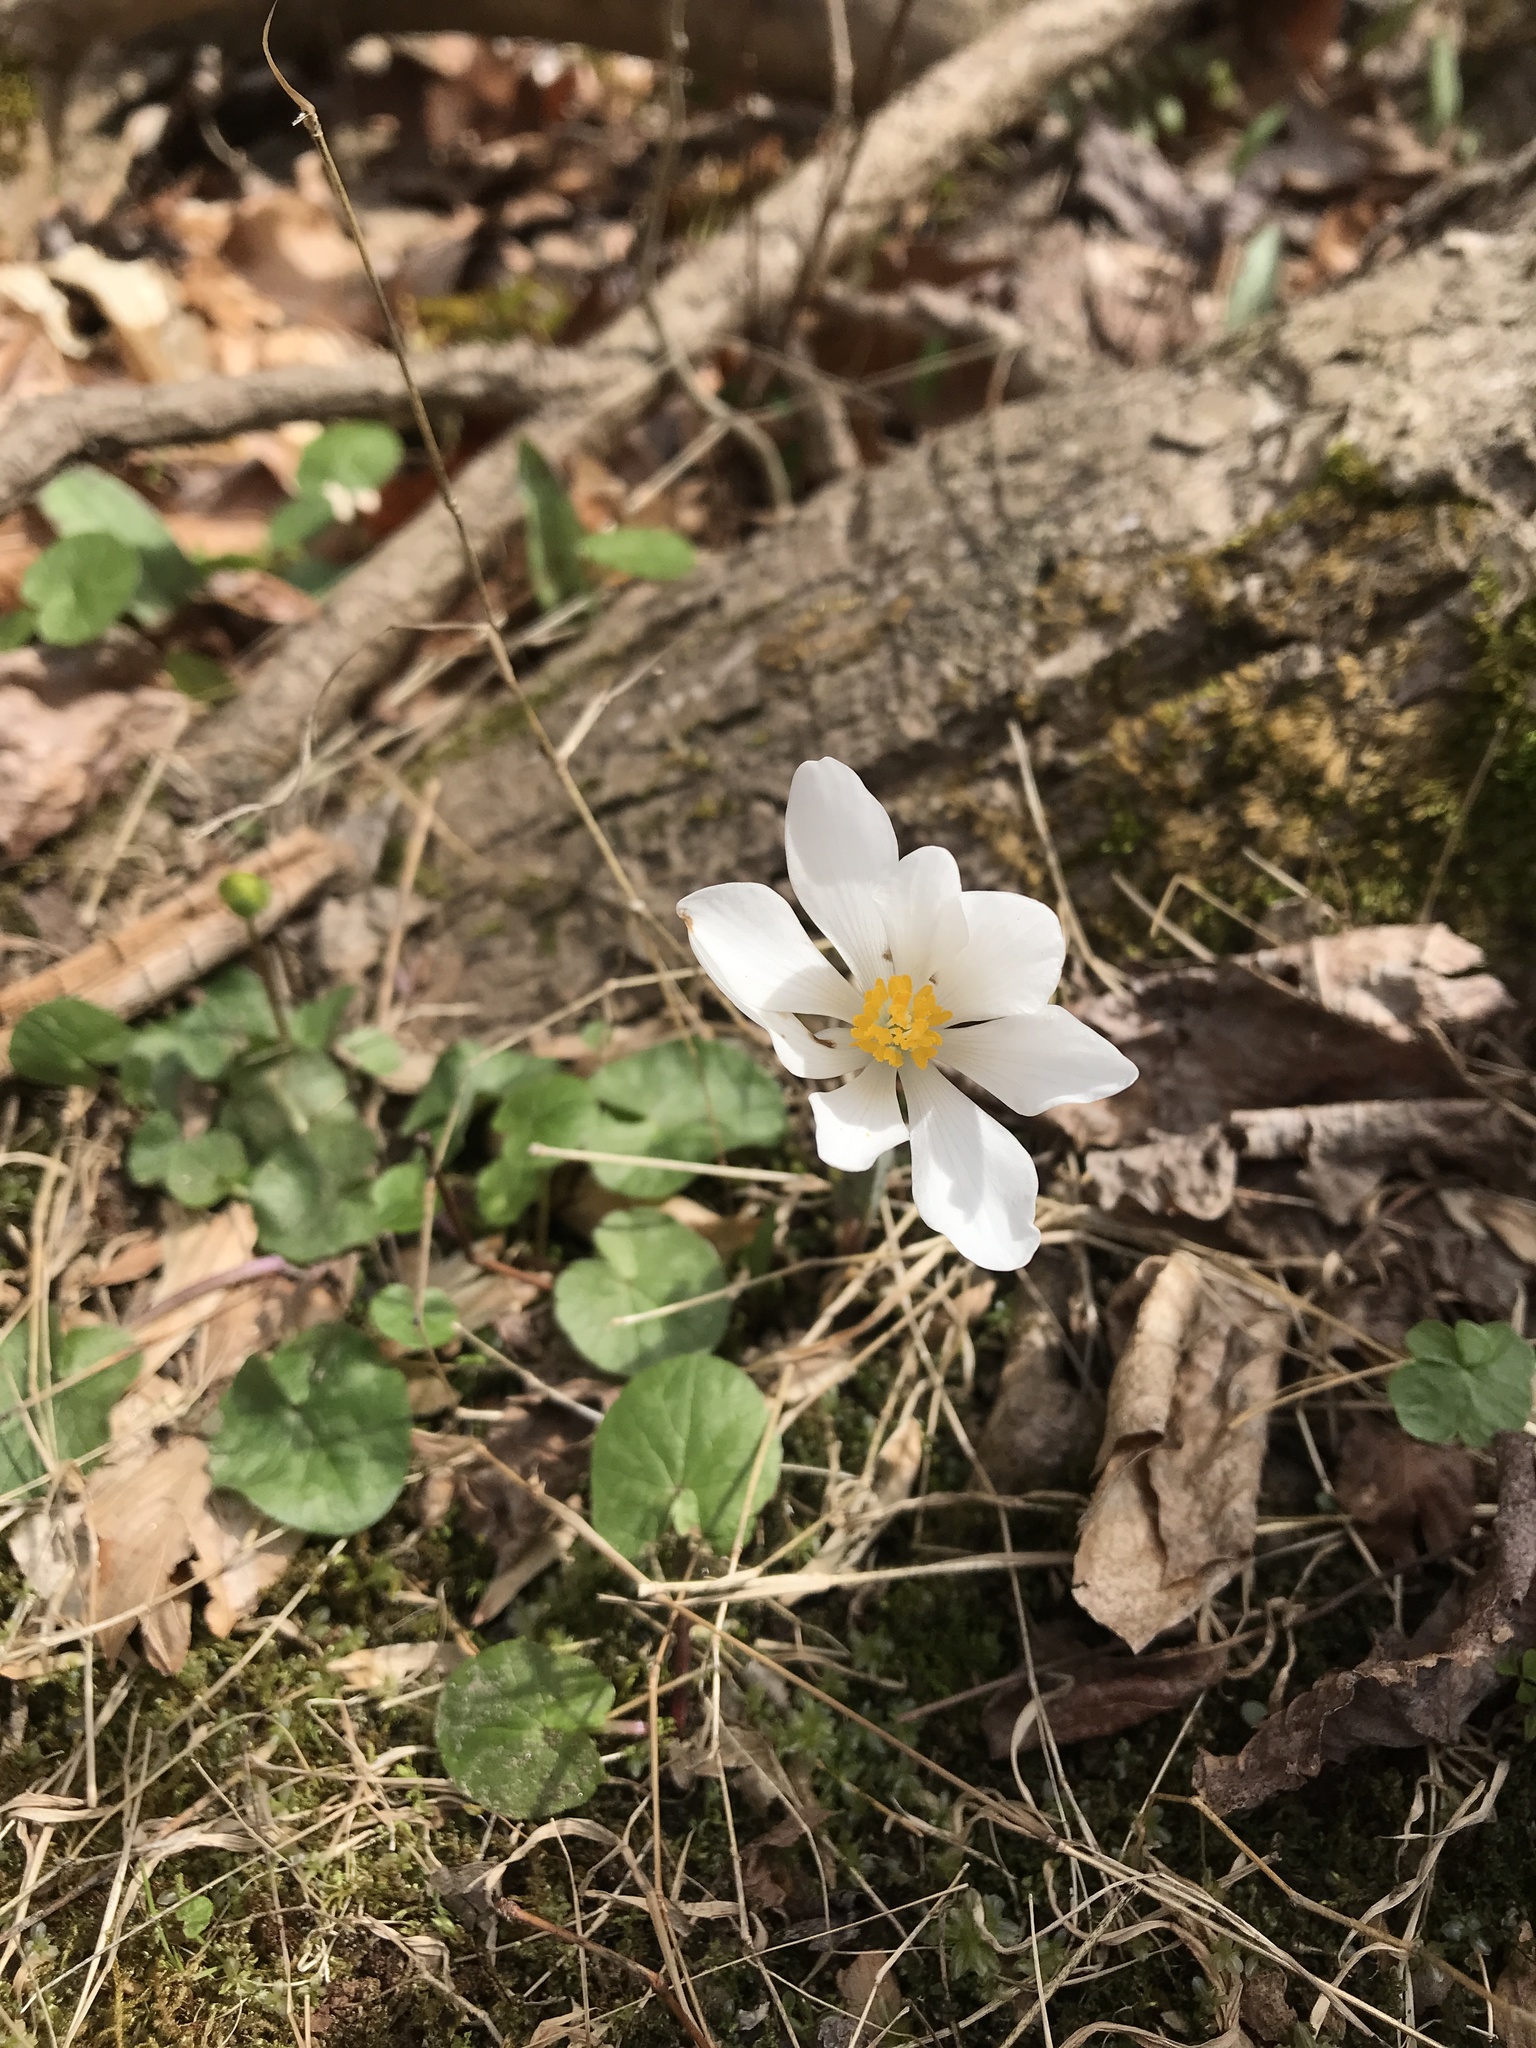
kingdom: Plantae
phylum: Tracheophyta
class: Magnoliopsida
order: Ranunculales
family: Papaveraceae
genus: Sanguinaria
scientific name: Sanguinaria canadensis
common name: Bloodroot
